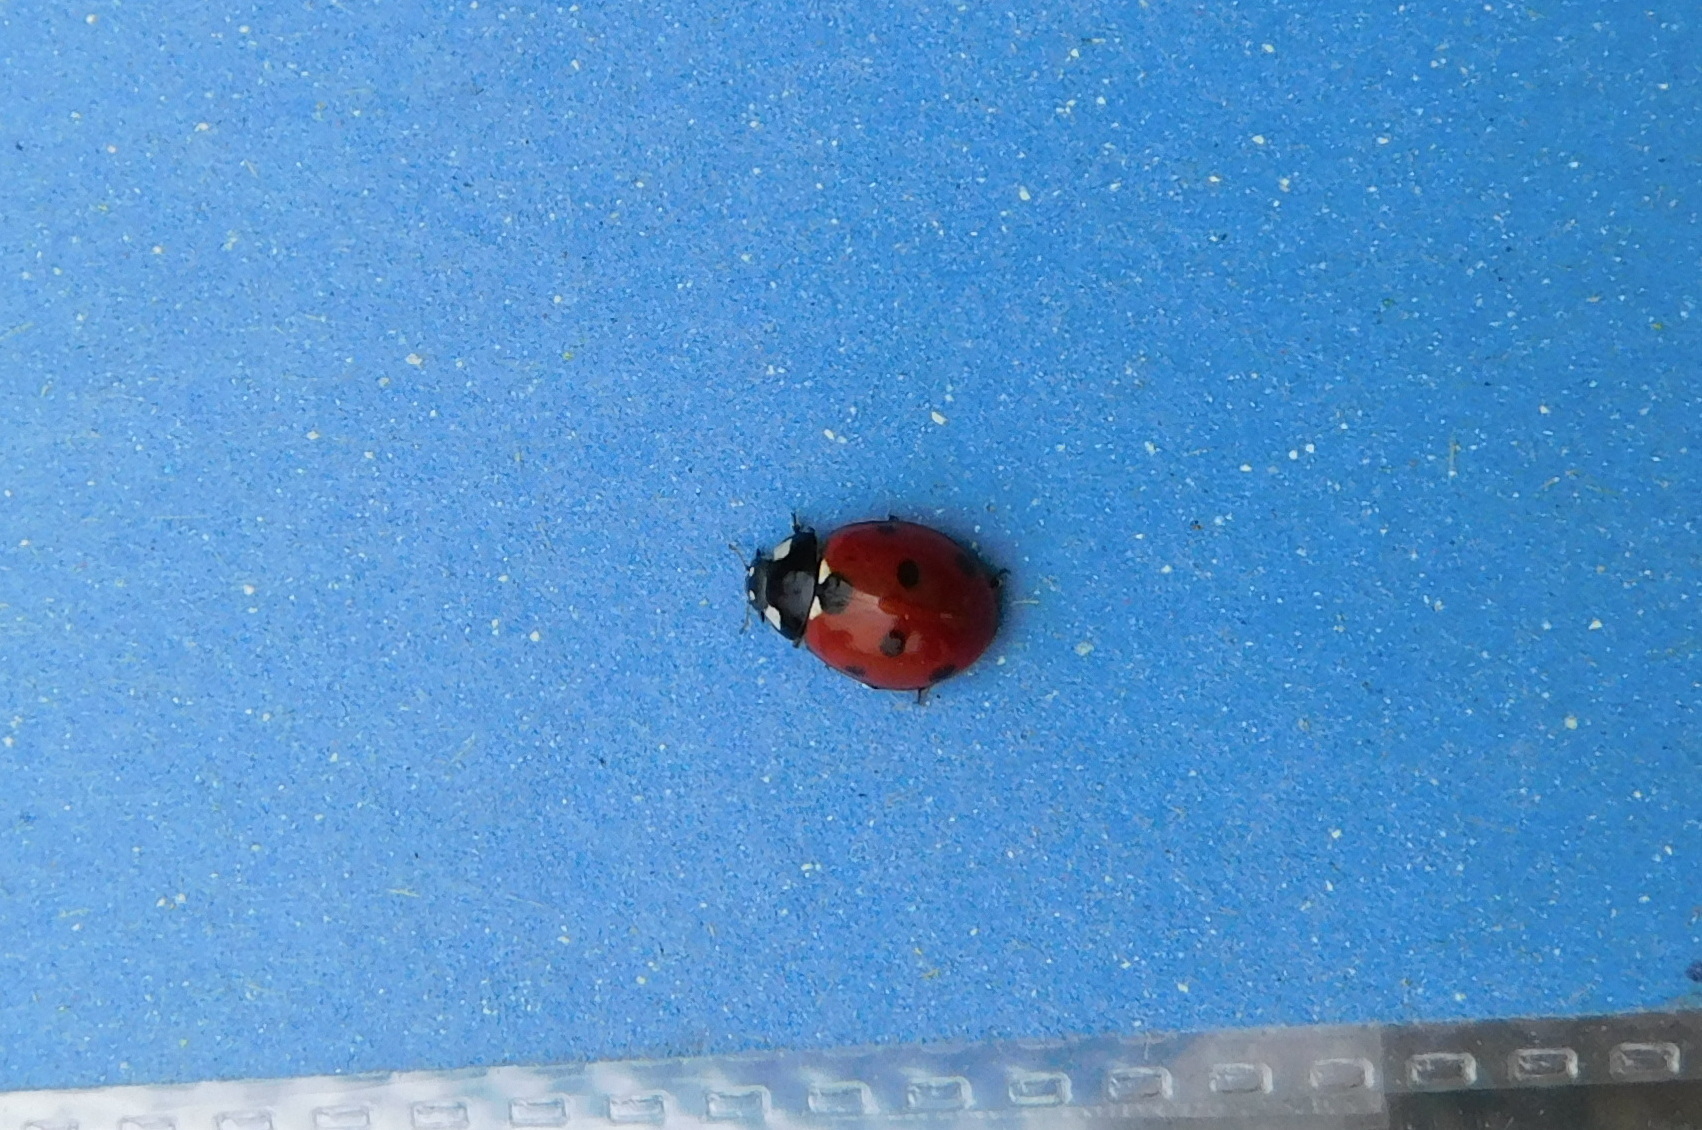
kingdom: Animalia
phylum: Arthropoda
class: Insecta
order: Coleoptera
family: Coccinellidae
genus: Coccinella
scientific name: Coccinella septempunctata
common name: Sevenspotted lady beetle
